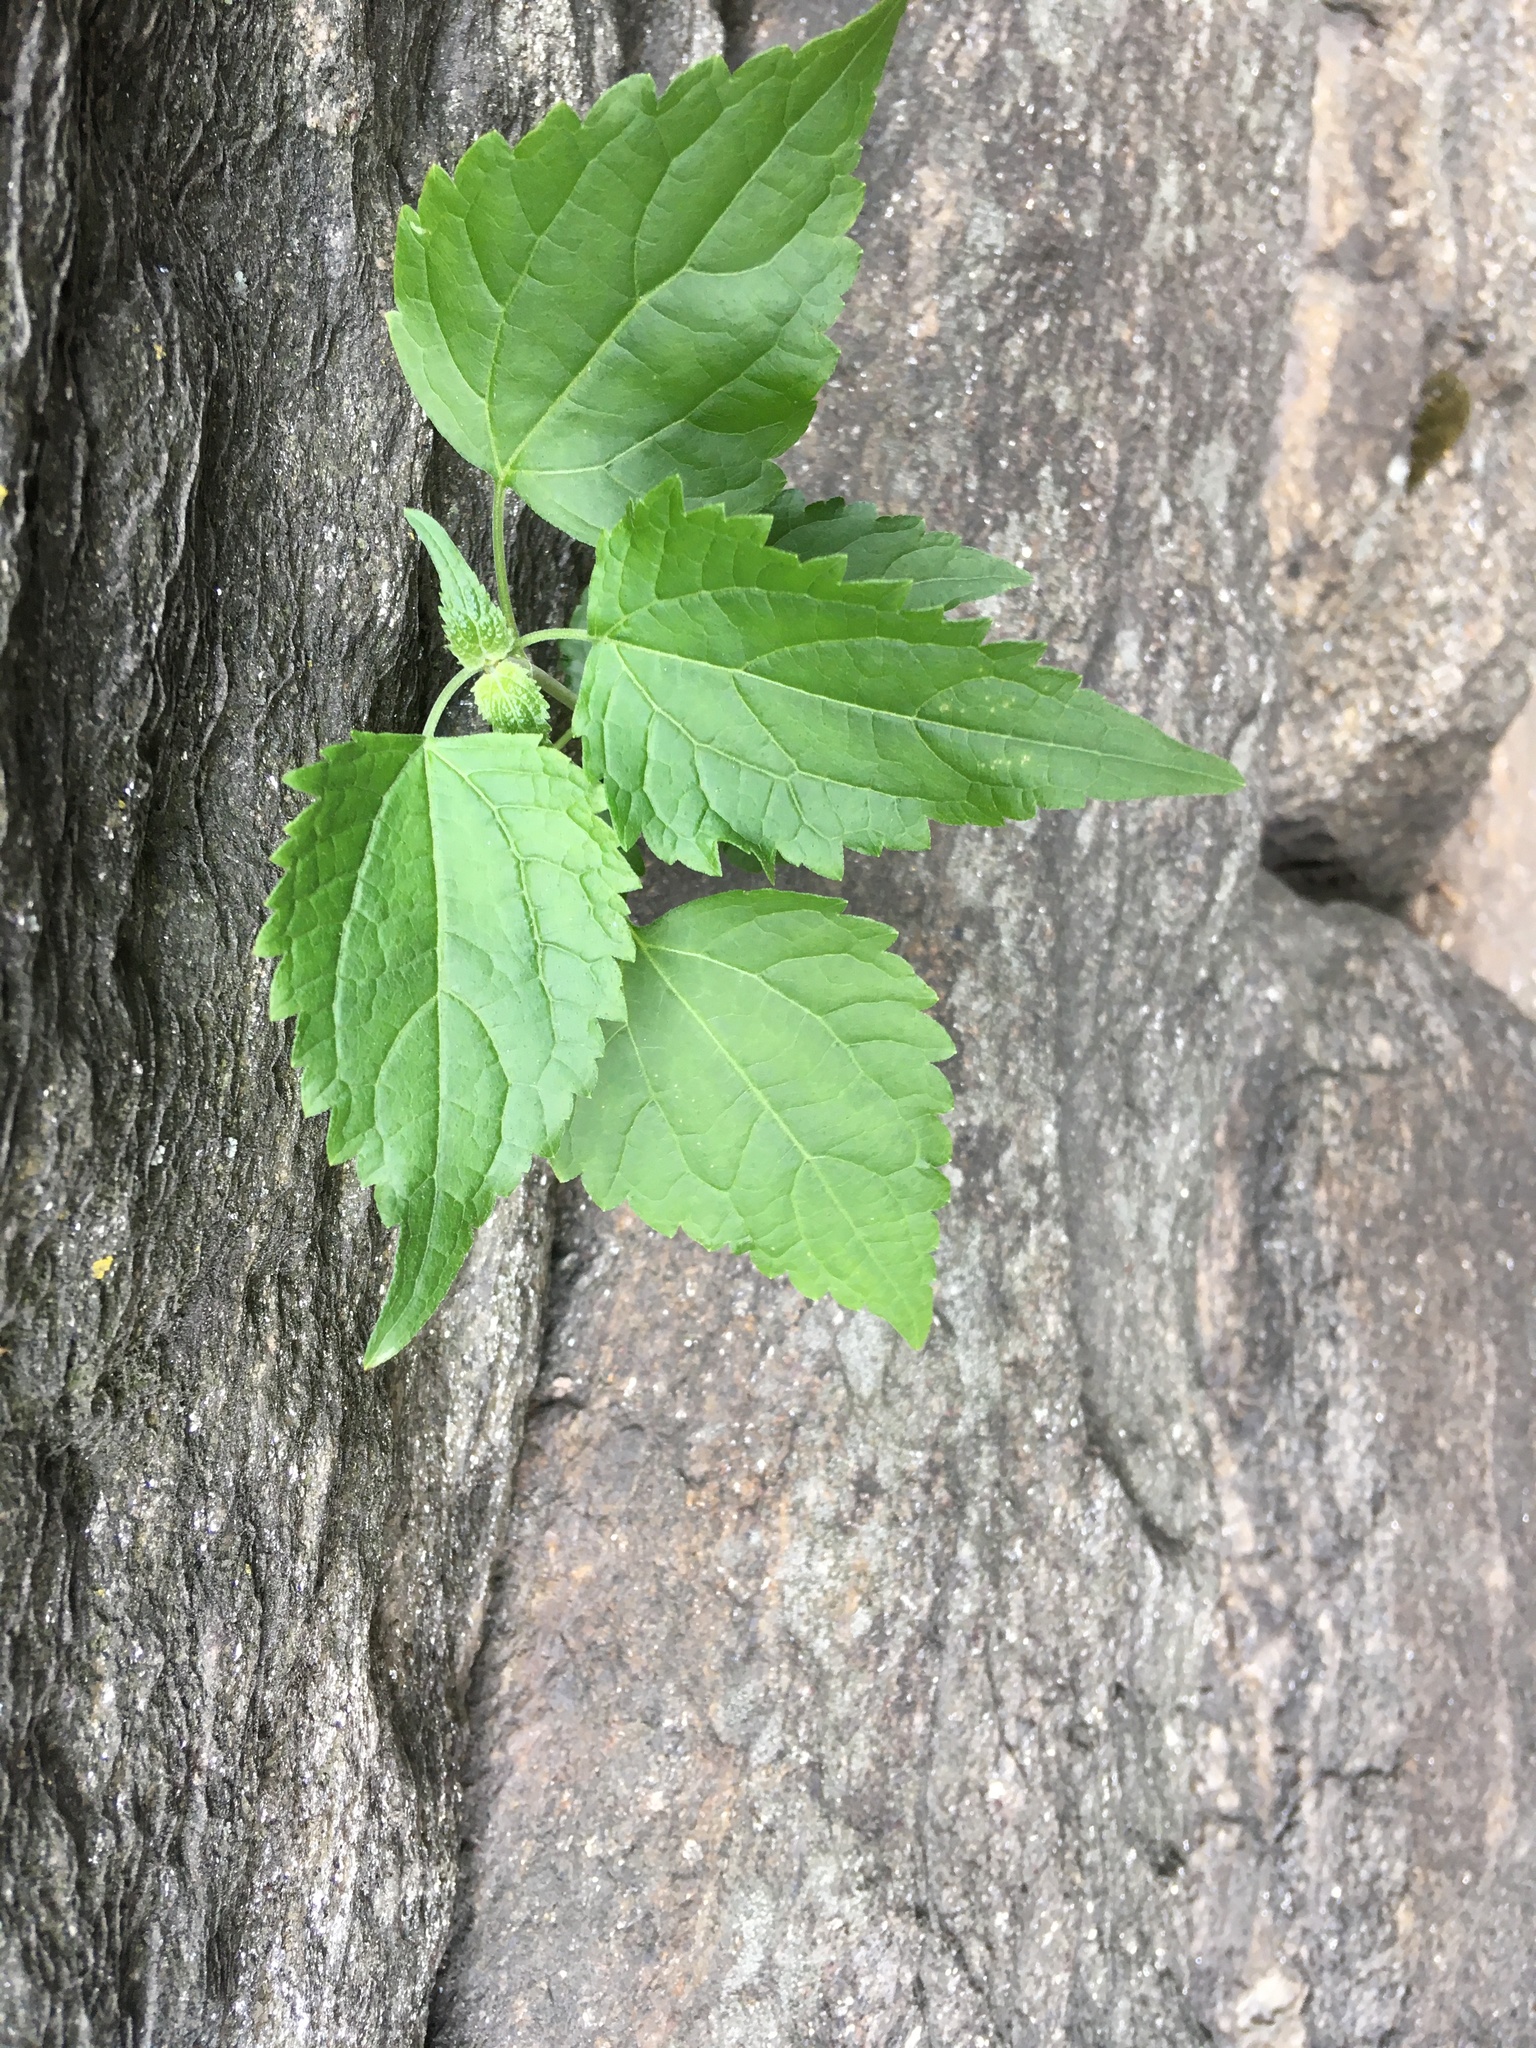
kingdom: Plantae
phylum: Tracheophyta
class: Magnoliopsida
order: Asterales
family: Asteraceae
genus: Ageratina
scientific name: Ageratina altissima
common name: White snakeroot
